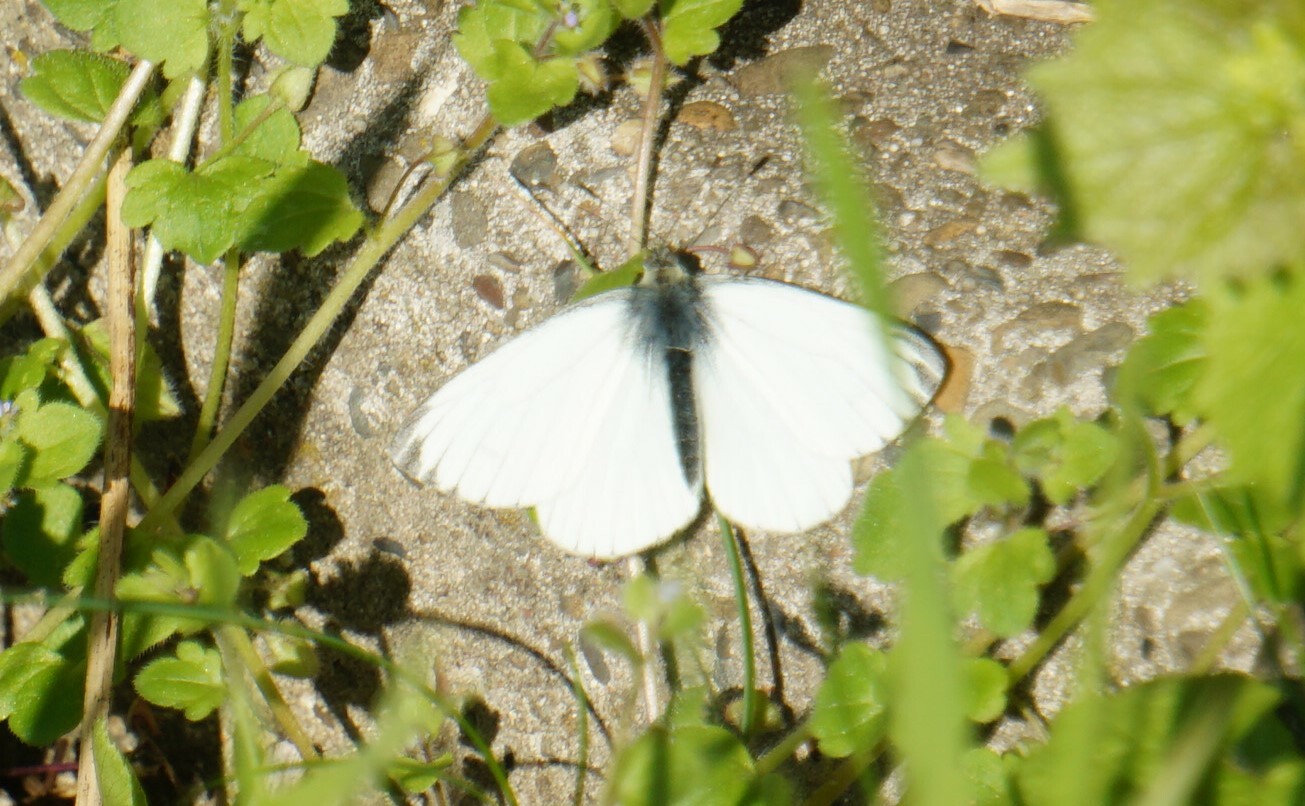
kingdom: Animalia
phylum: Arthropoda
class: Insecta
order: Lepidoptera
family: Pieridae
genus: Pieris
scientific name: Pieris napi
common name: Green-veined white
